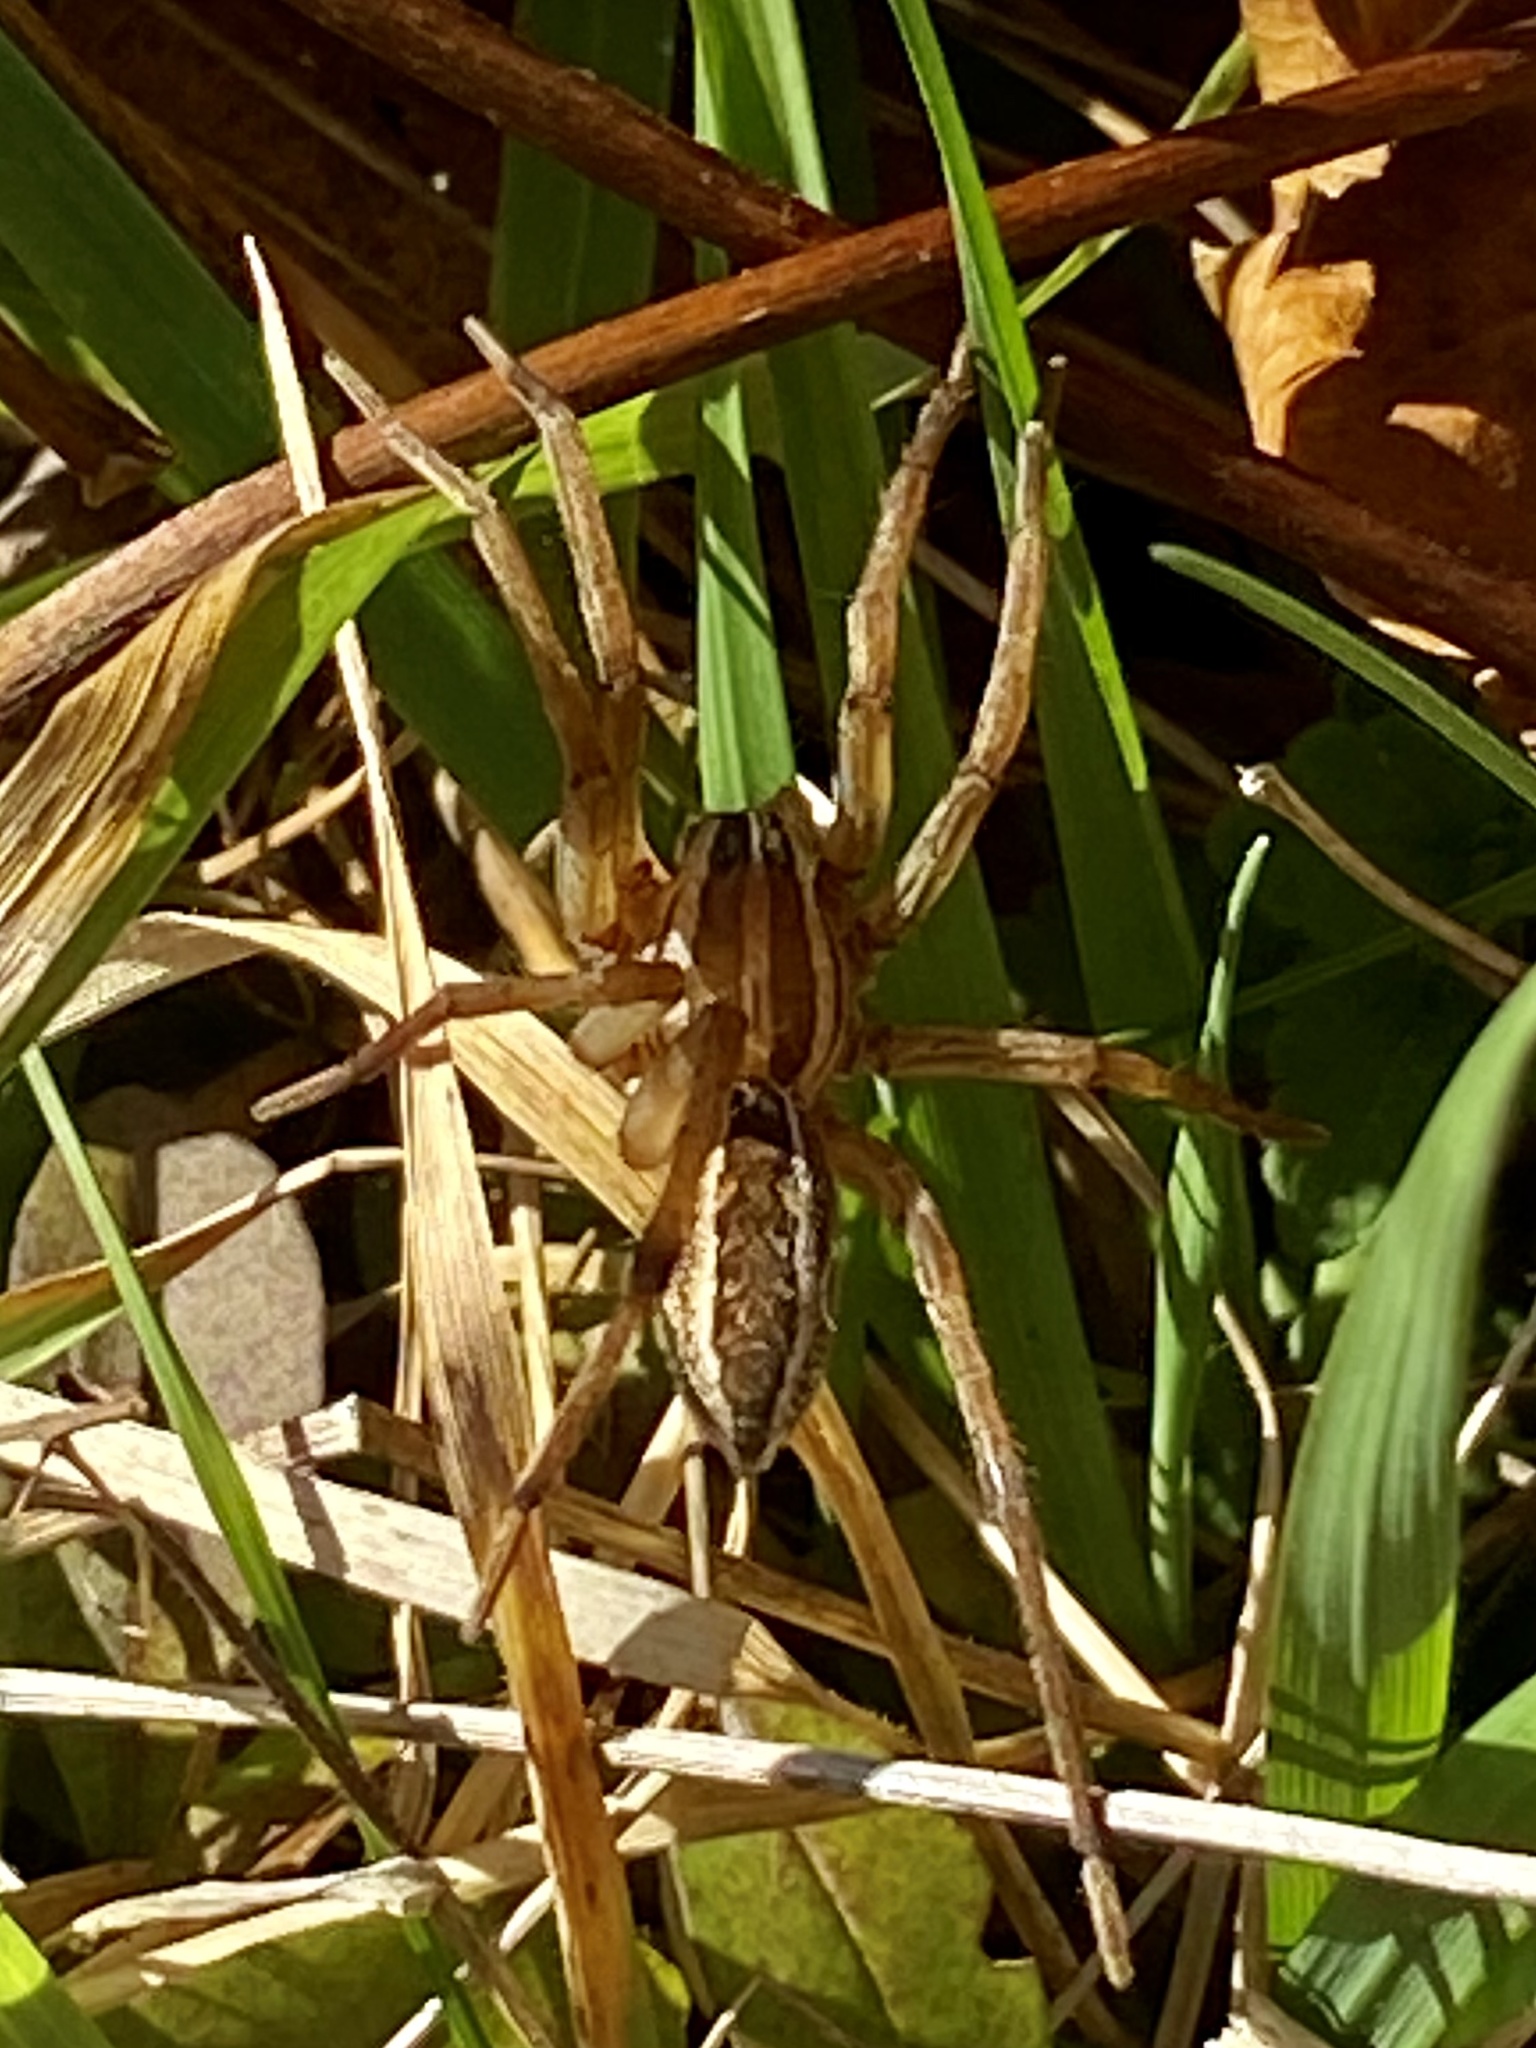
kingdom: Animalia
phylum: Arthropoda
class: Arachnida
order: Araneae
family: Lycosidae
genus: Rabidosa
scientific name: Rabidosa rabida
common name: Rabid wolf spider
